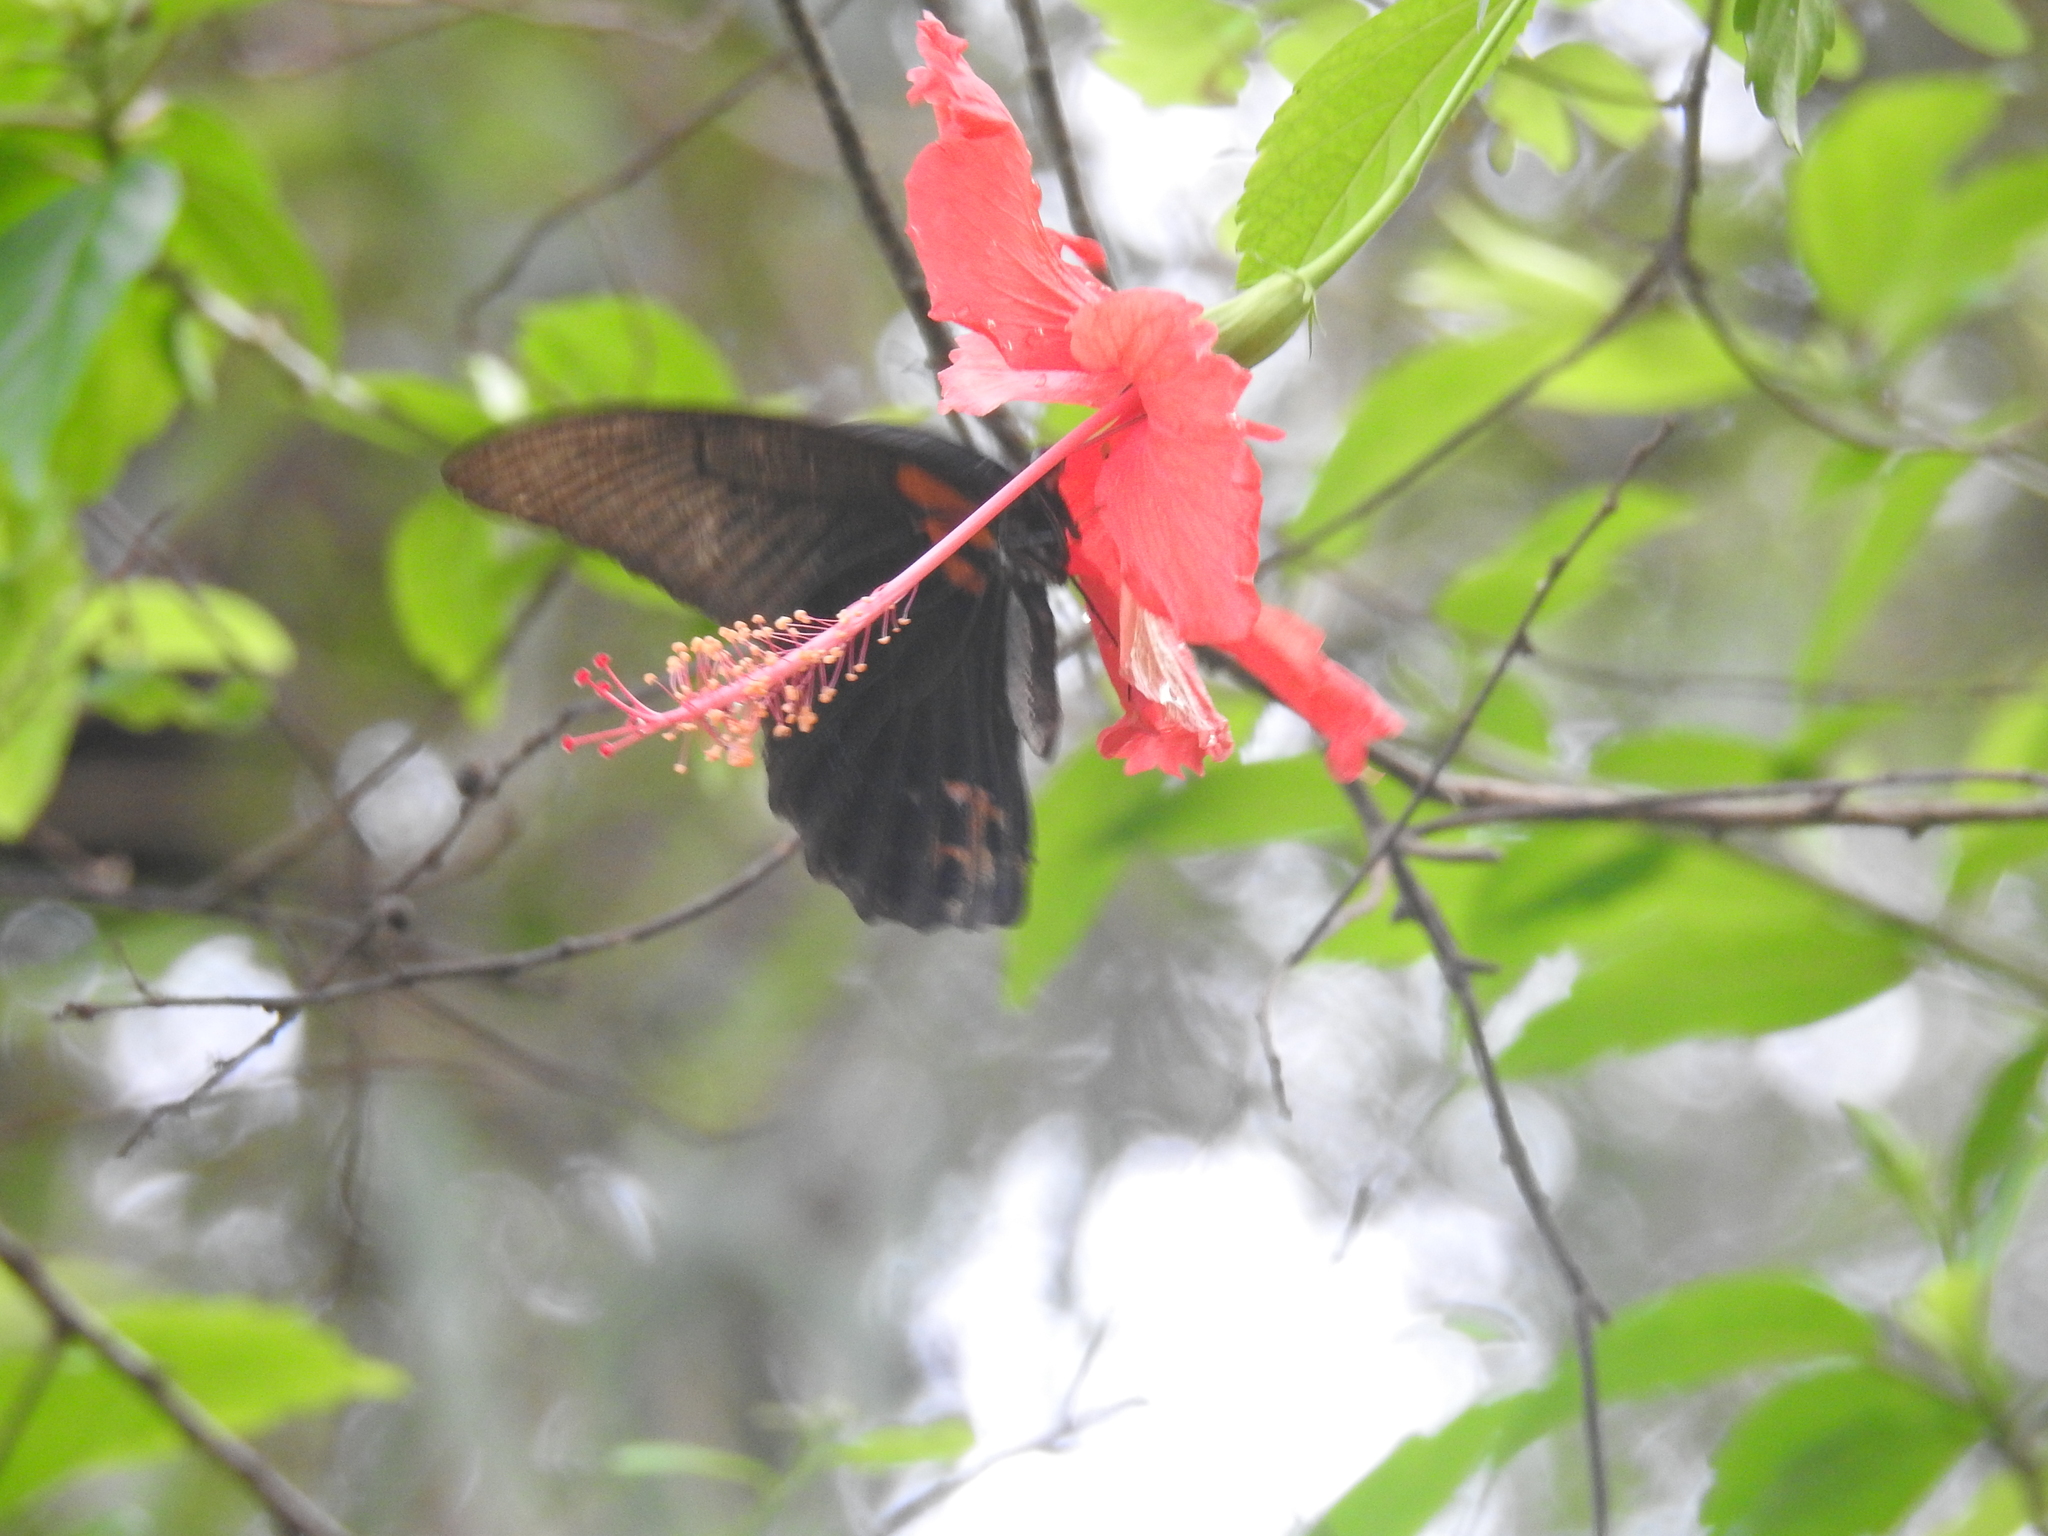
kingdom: Animalia
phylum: Arthropoda
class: Insecta
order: Lepidoptera
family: Papilionidae
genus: Papilio
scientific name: Papilio memnon
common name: Great mormon
